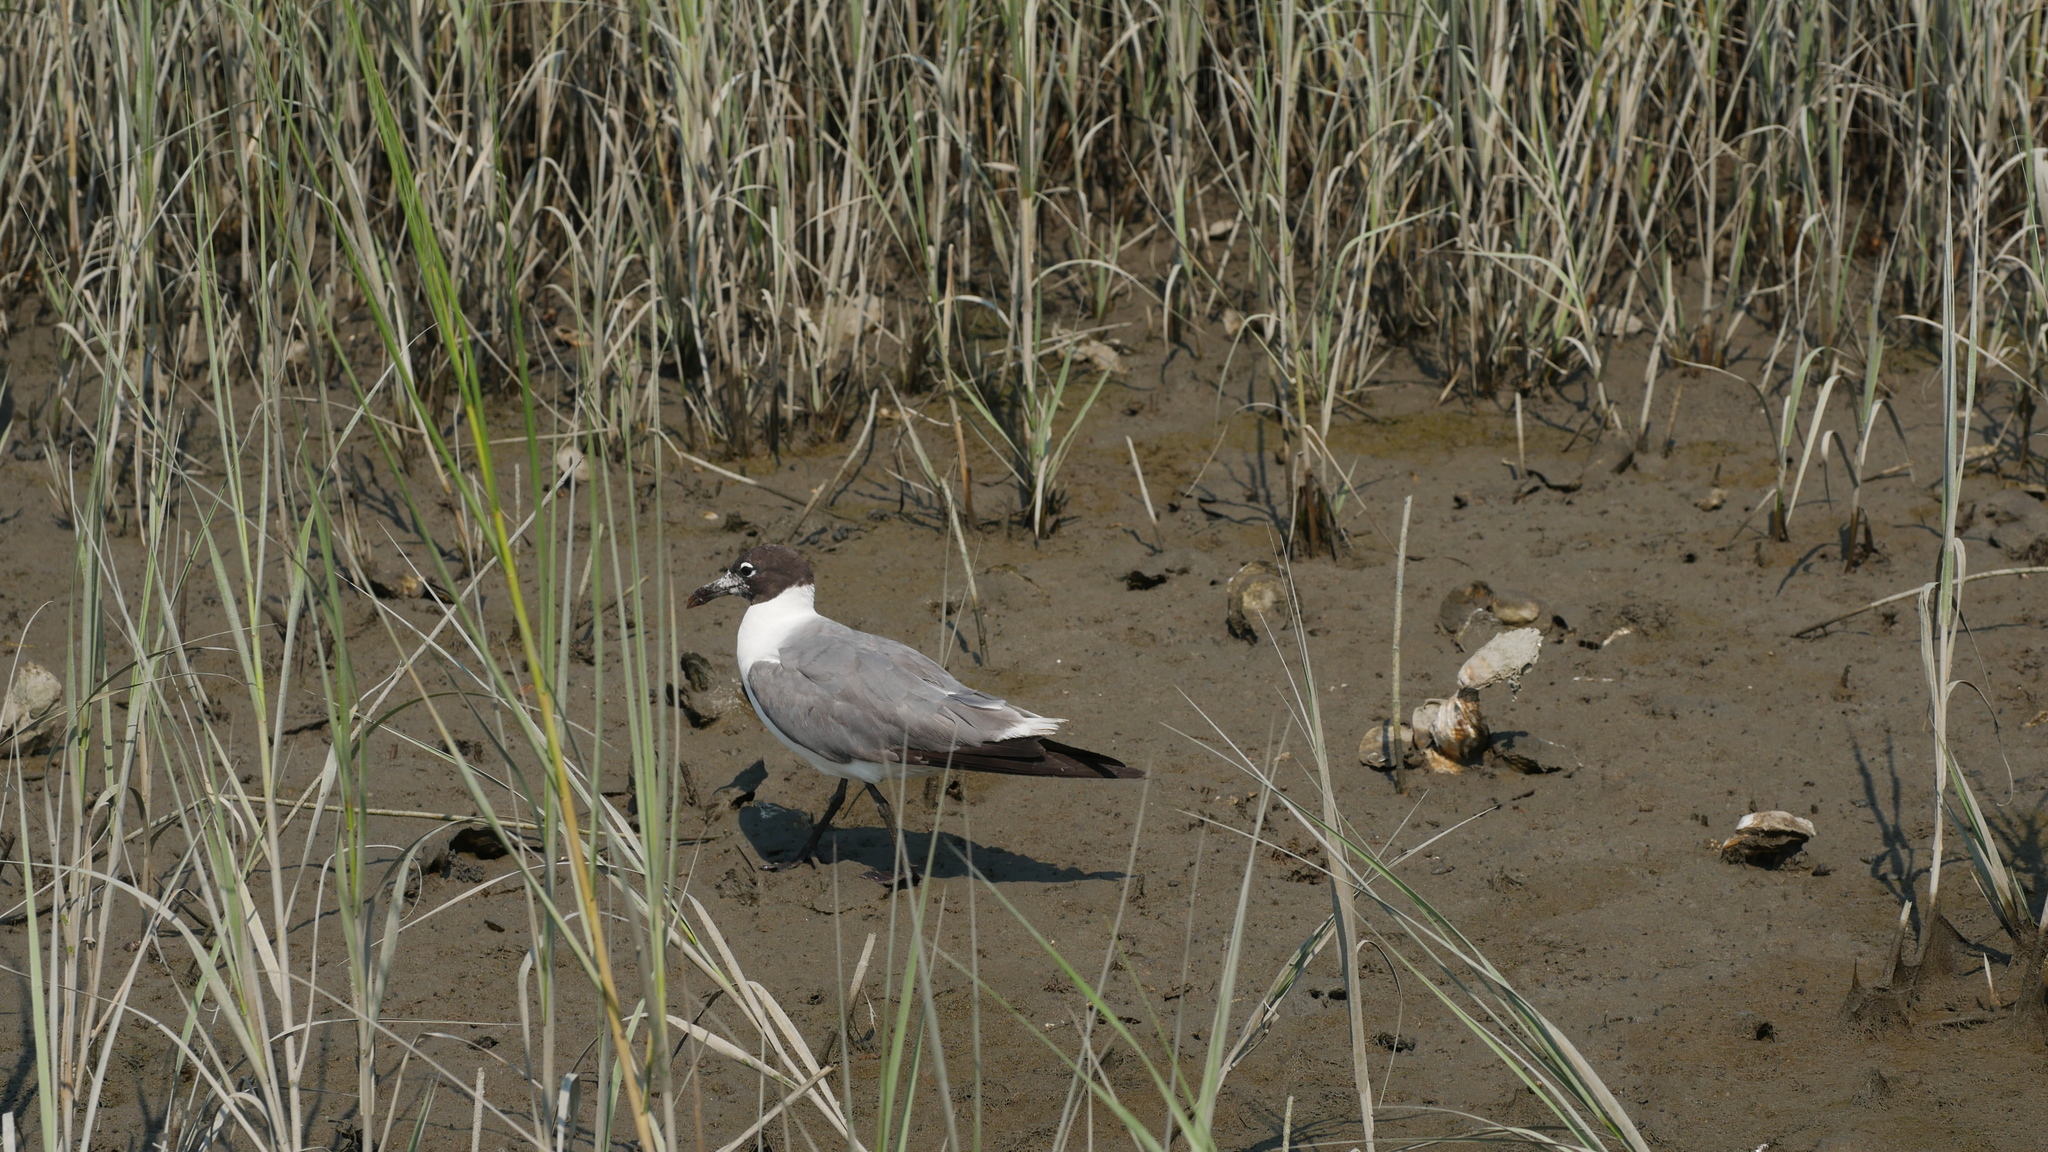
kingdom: Animalia
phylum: Chordata
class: Aves
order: Charadriiformes
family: Laridae
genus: Leucophaeus
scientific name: Leucophaeus atricilla
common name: Laughing gull
